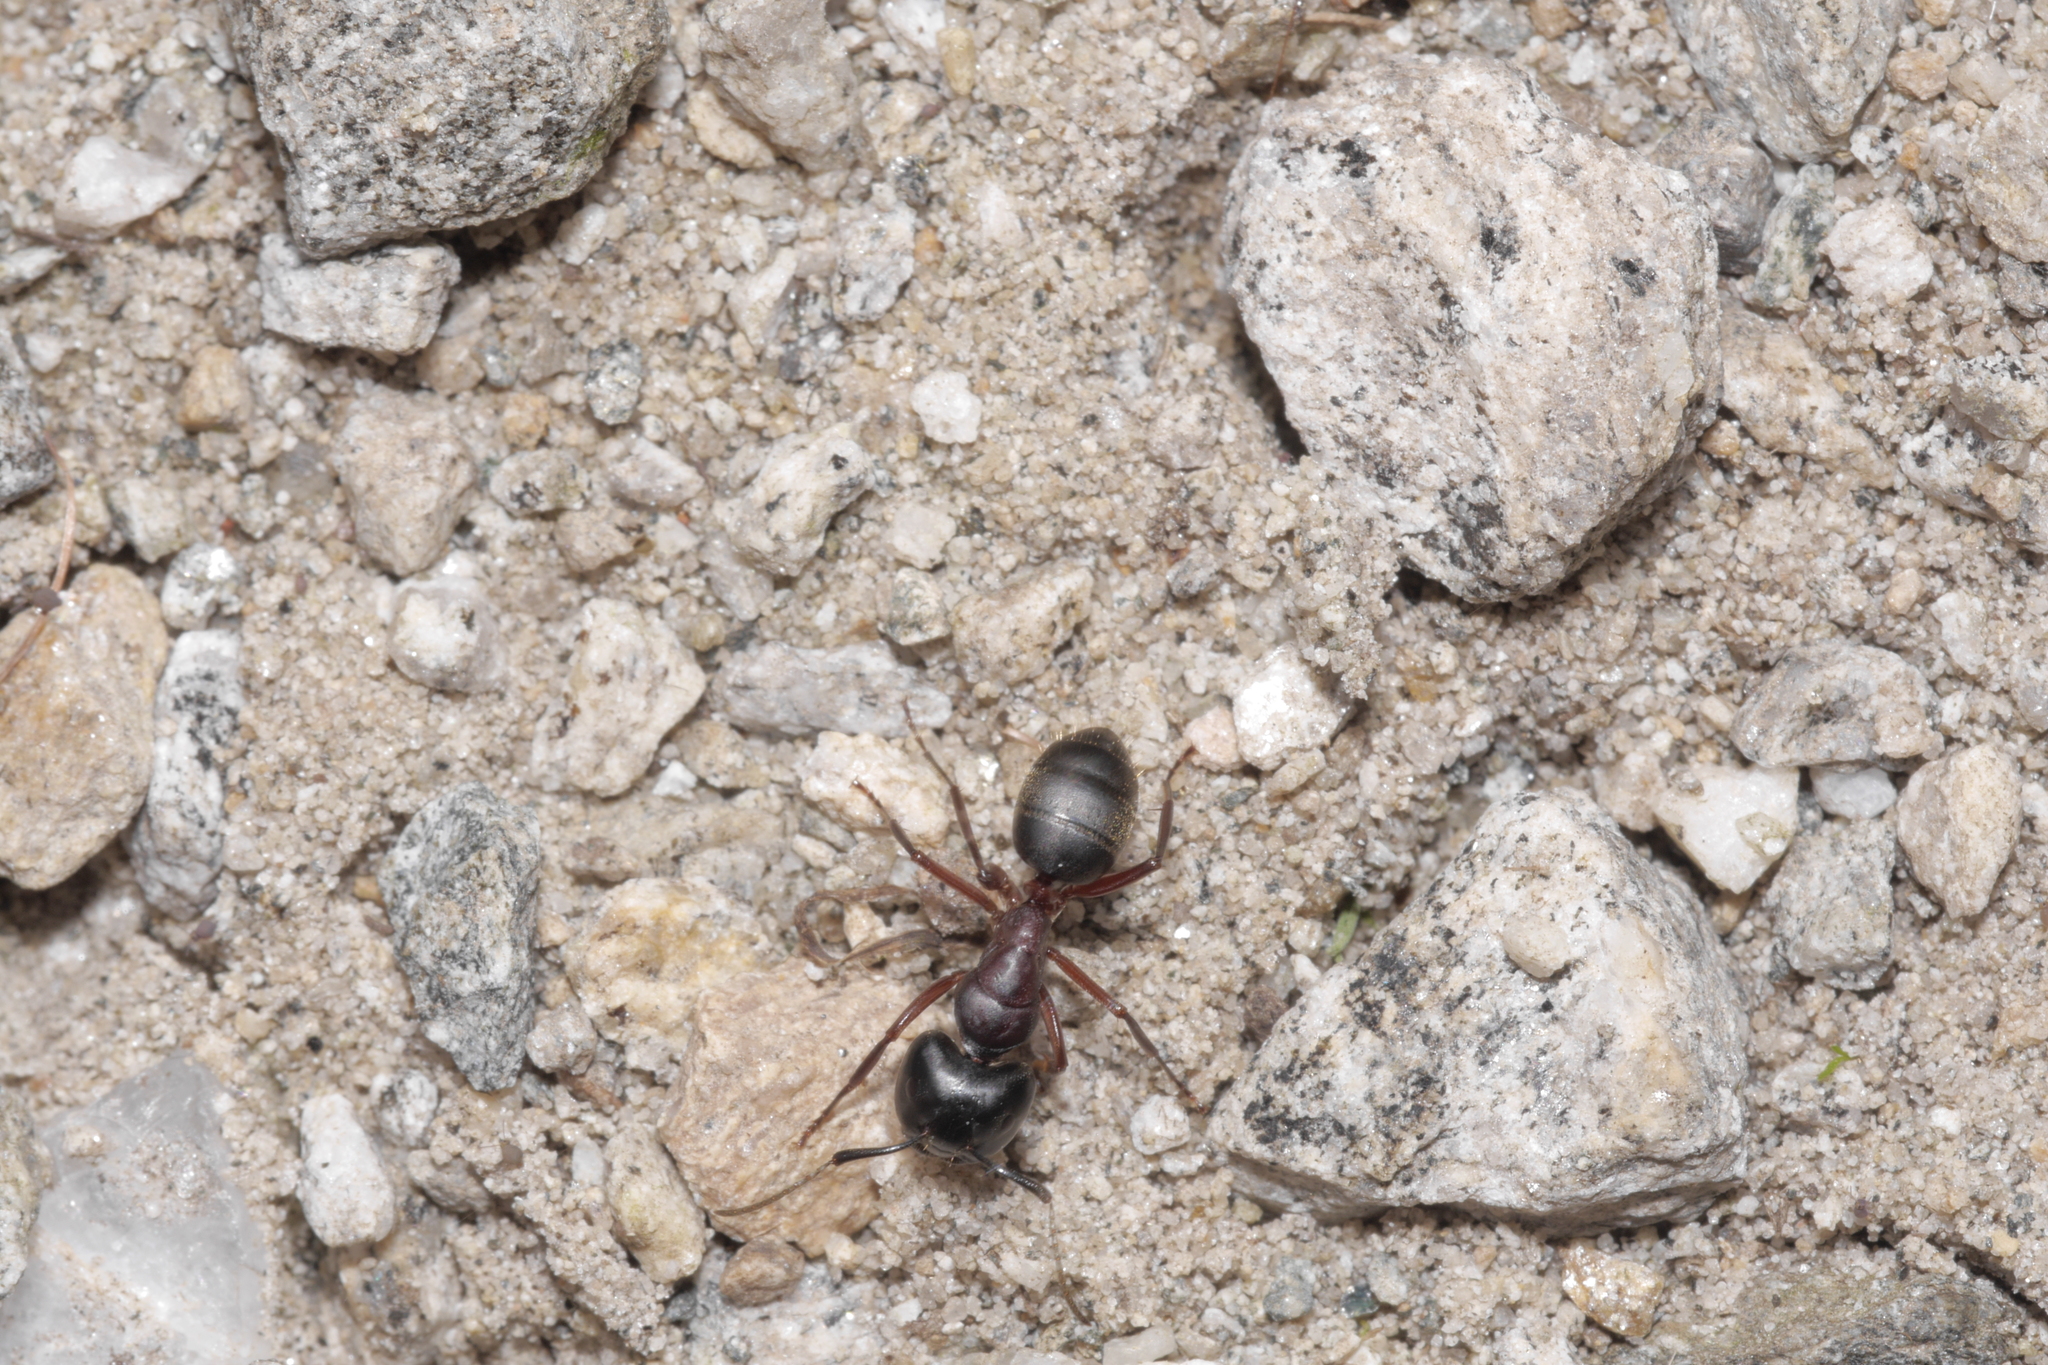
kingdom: Animalia
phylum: Arthropoda
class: Insecta
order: Hymenoptera
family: Formicidae
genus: Camponotus
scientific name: Camponotus herculeanus
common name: Hercules ant
